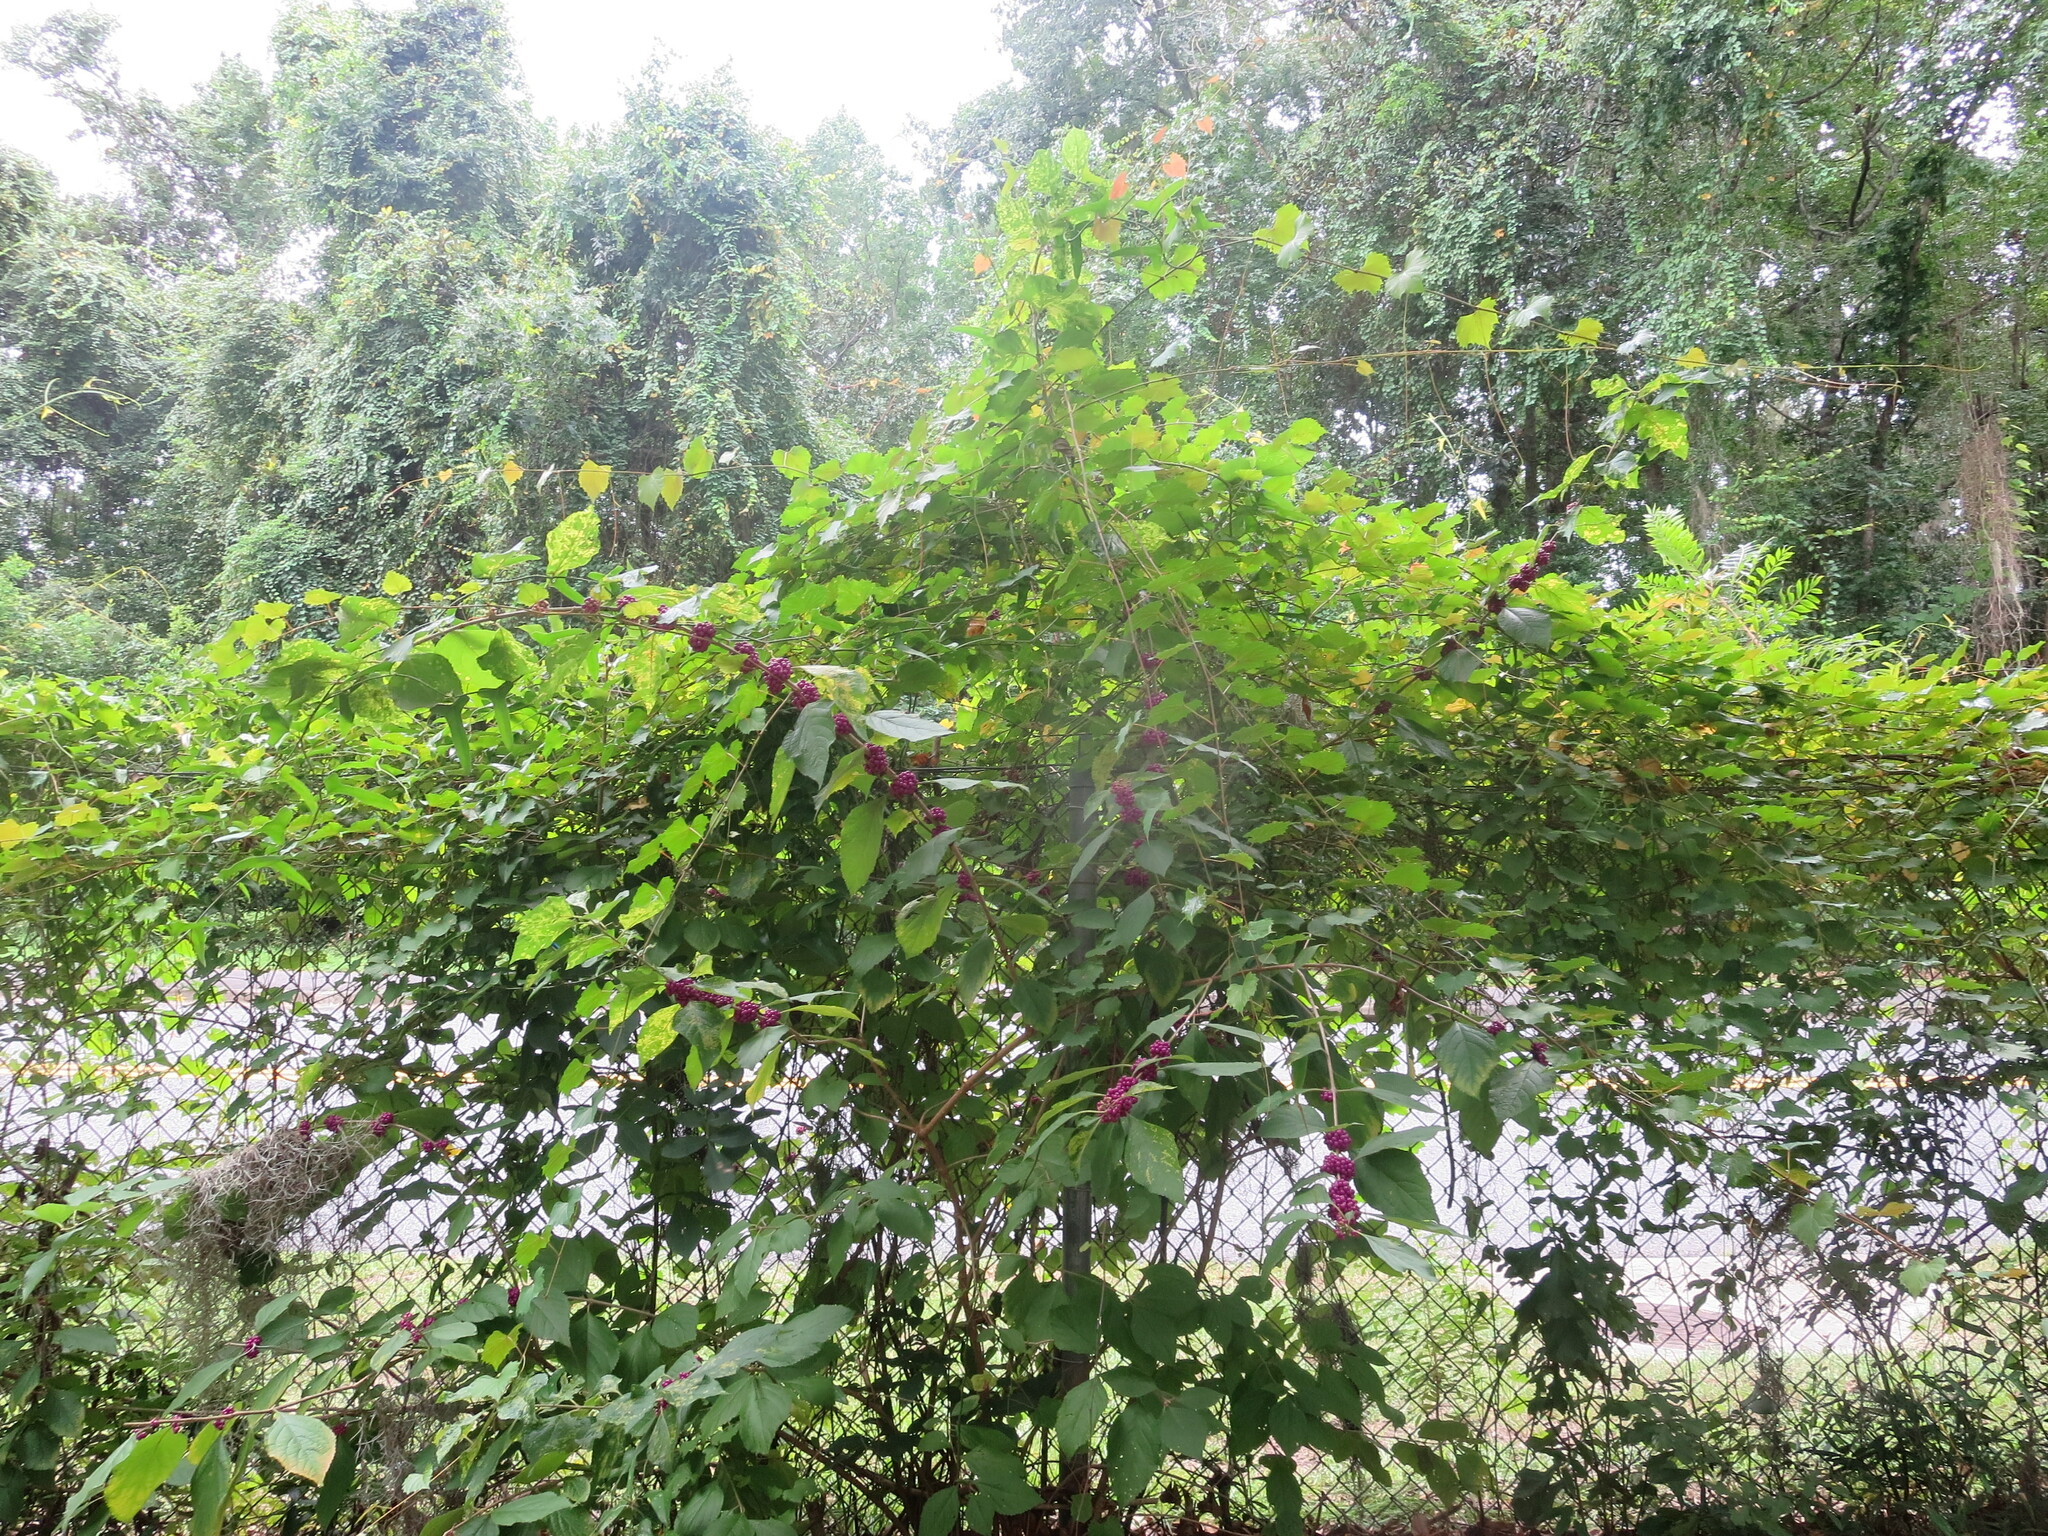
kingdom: Plantae
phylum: Tracheophyta
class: Magnoliopsida
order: Lamiales
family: Lamiaceae
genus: Callicarpa
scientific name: Callicarpa americana
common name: American beautyberry
